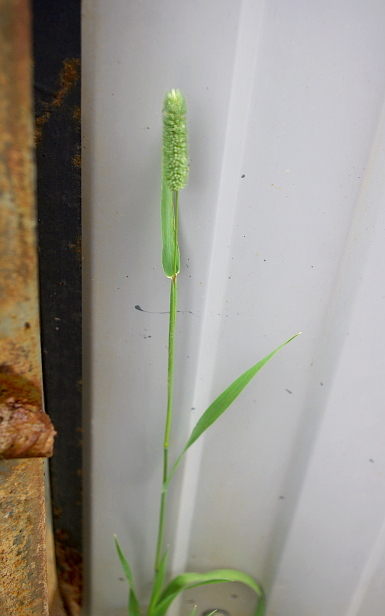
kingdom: Plantae
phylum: Tracheophyta
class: Liliopsida
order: Poales
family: Poaceae
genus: Phleum
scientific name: Phleum pratense
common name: Timothy grass
